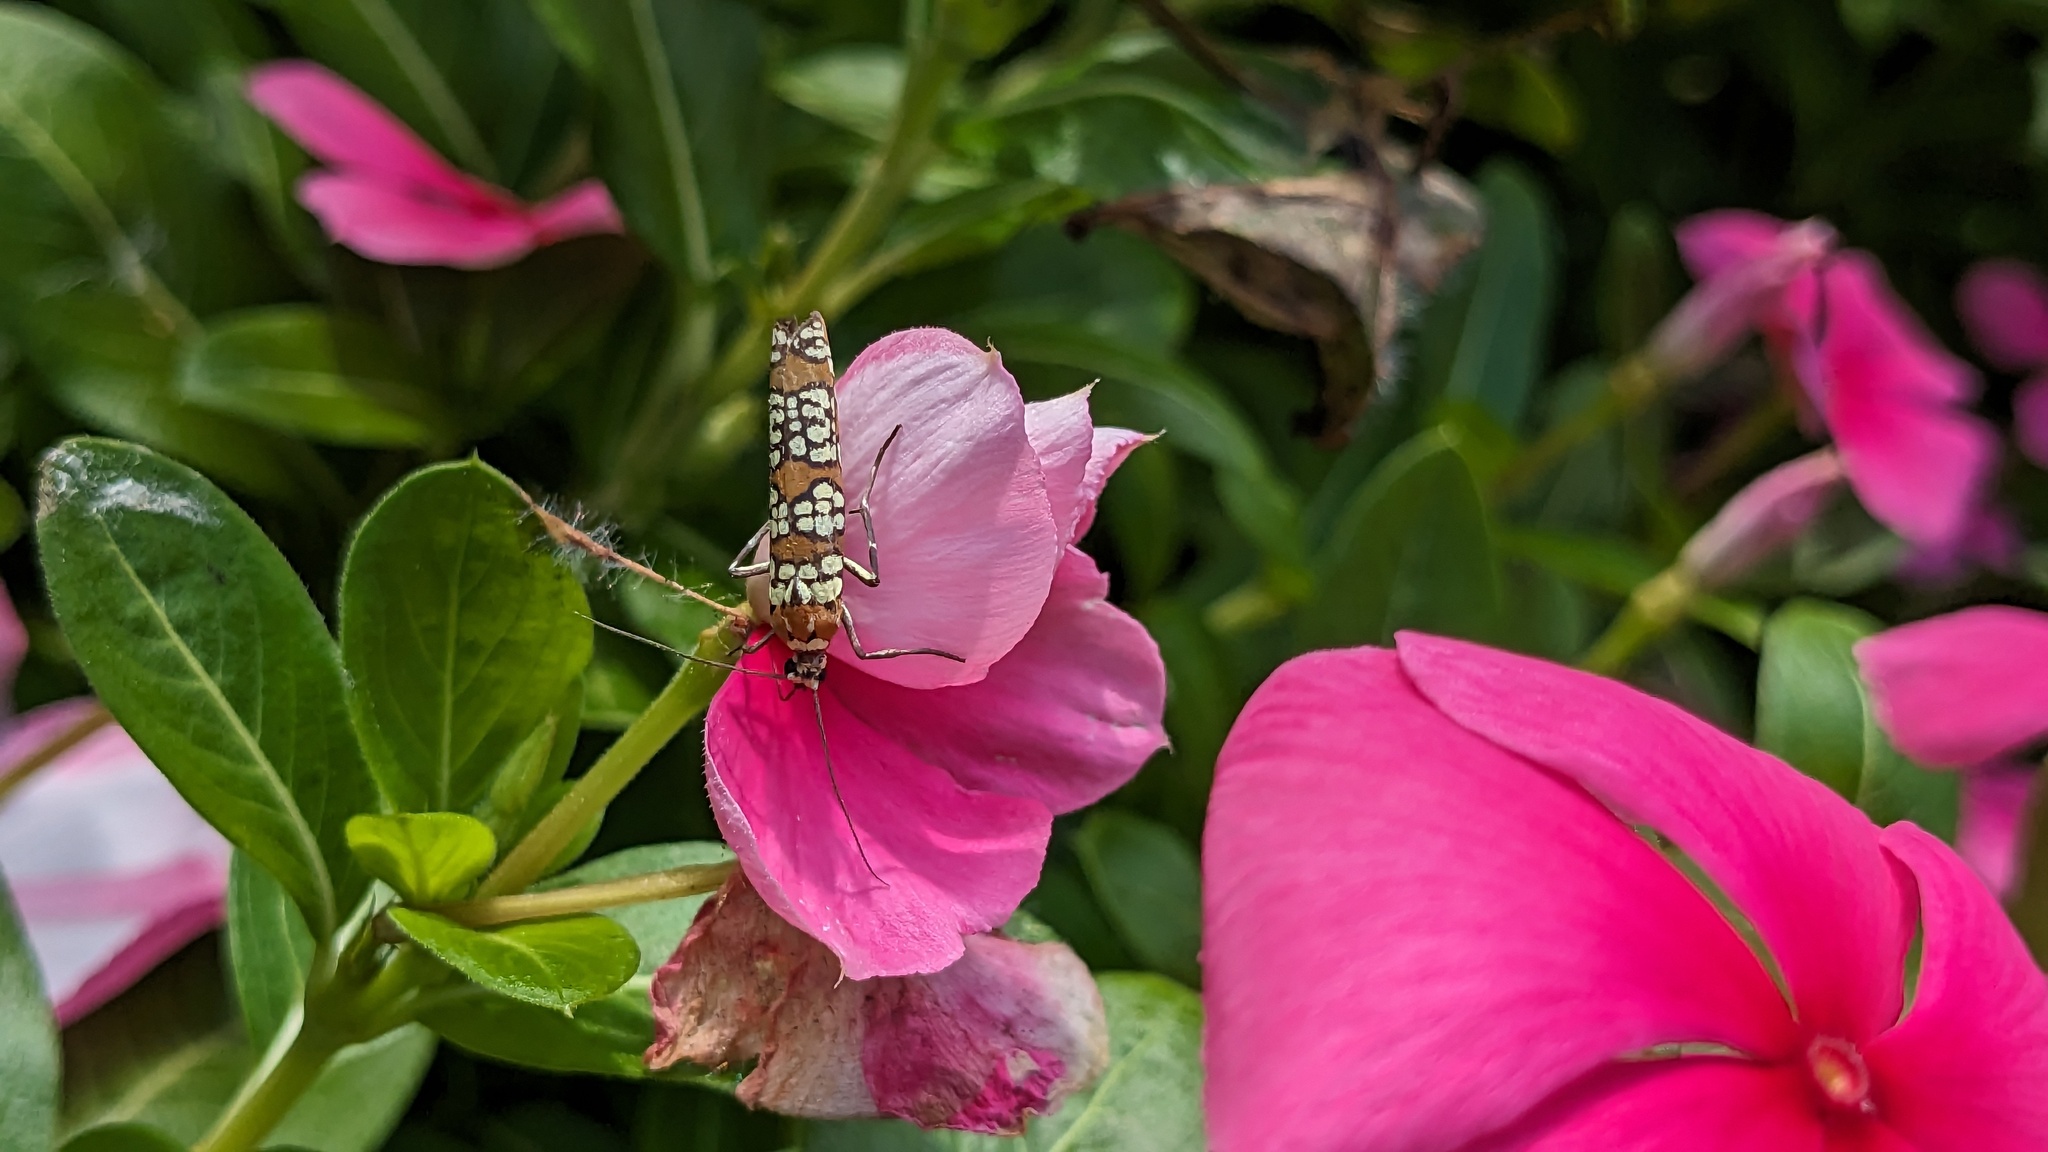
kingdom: Animalia
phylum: Arthropoda
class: Insecta
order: Lepidoptera
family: Attevidae
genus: Atteva
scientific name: Atteva punctella
